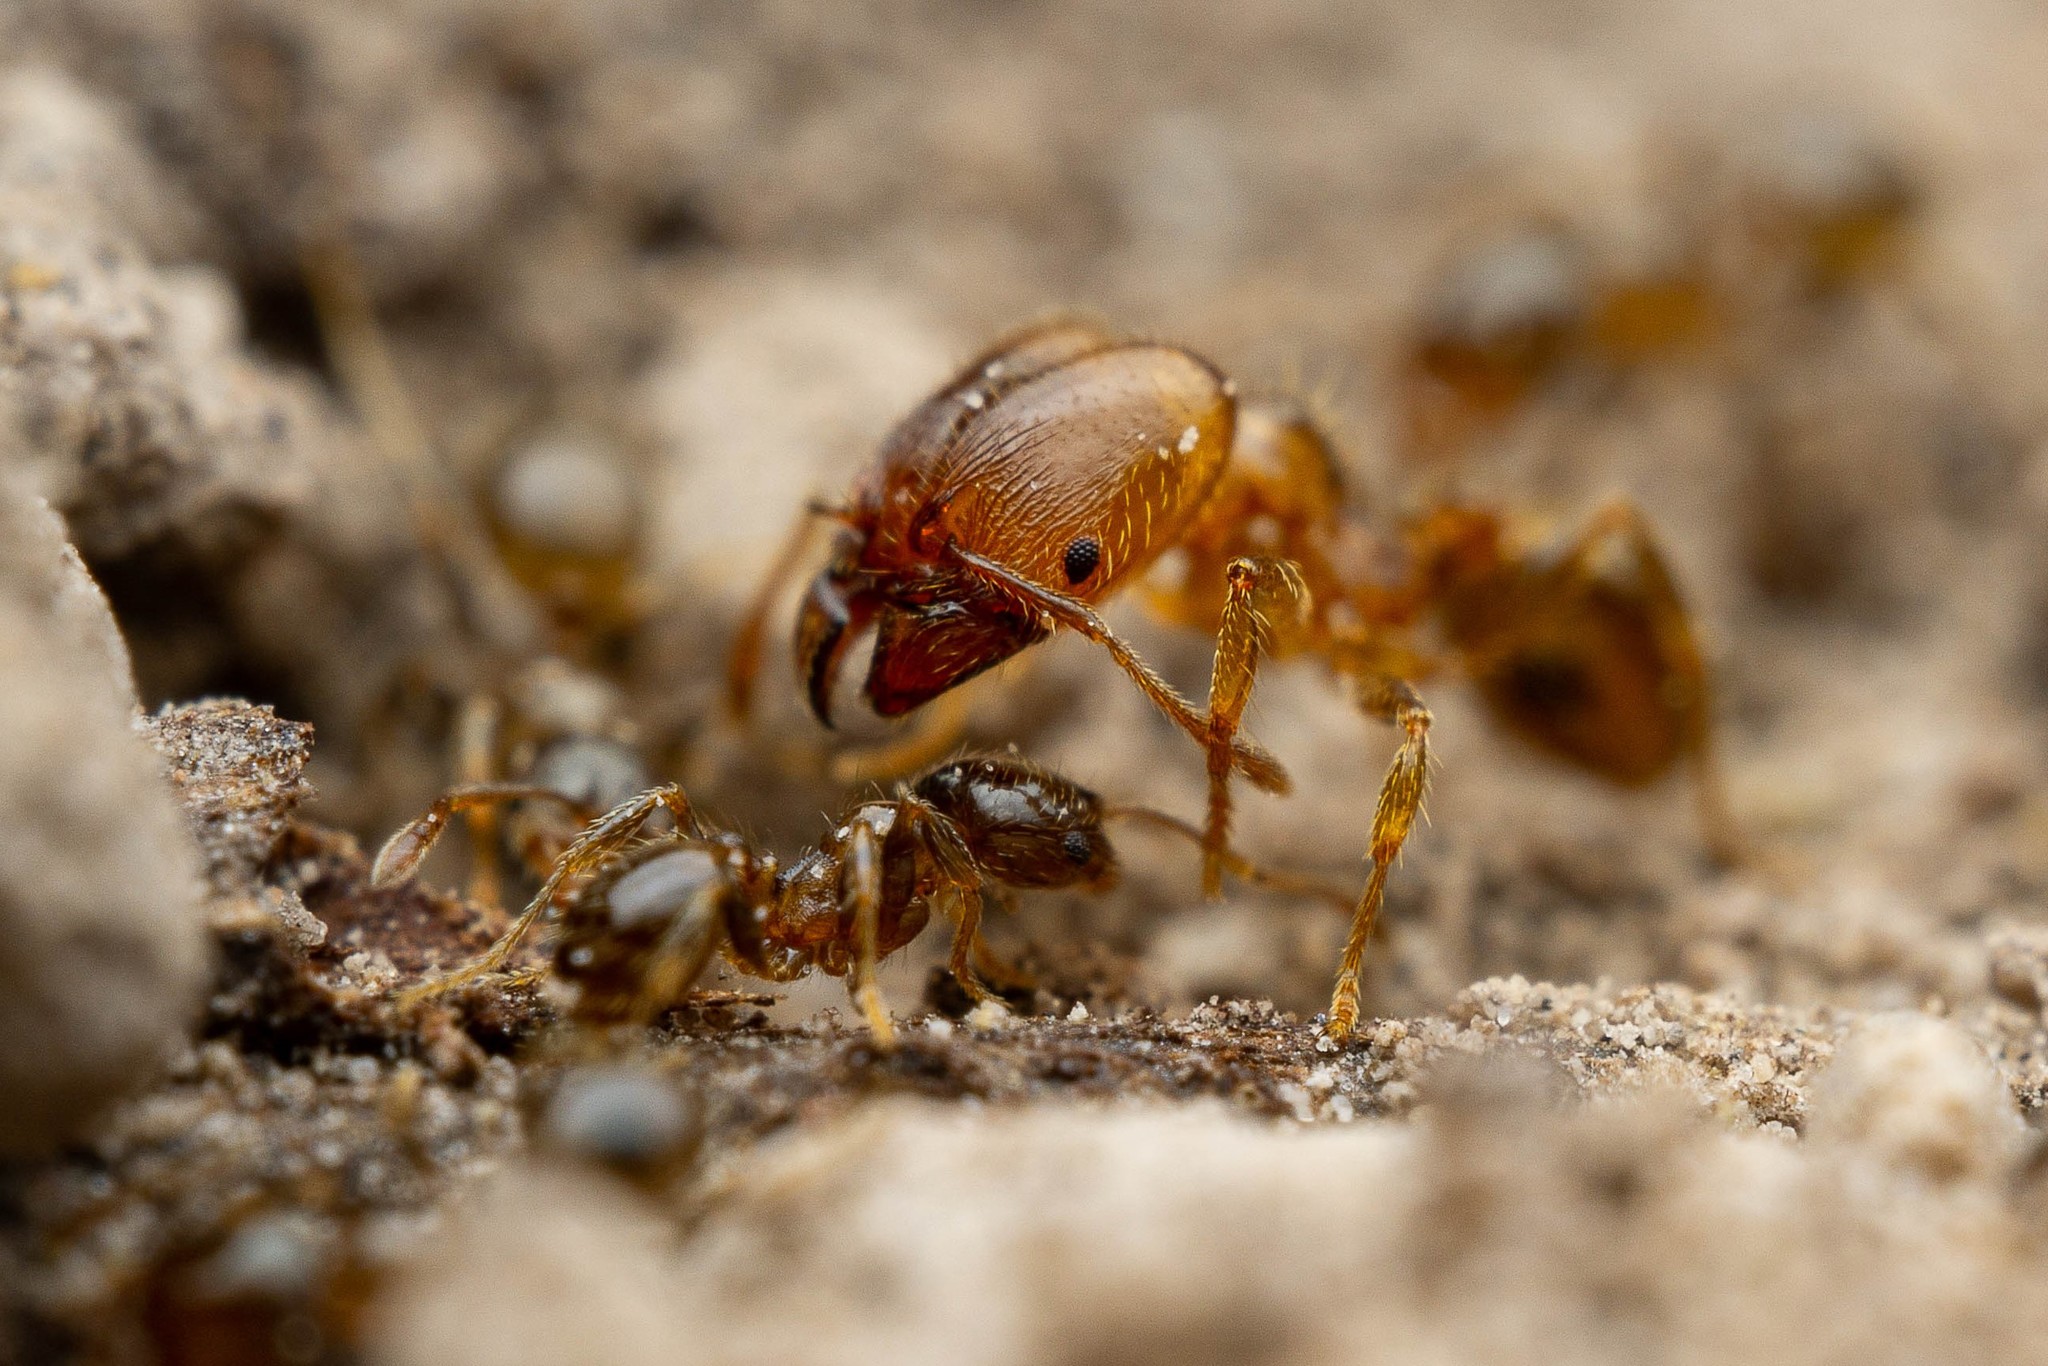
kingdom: Animalia
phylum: Arthropoda
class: Insecta
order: Hymenoptera
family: Formicidae
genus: Pheidole
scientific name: Pheidole bicarinata
